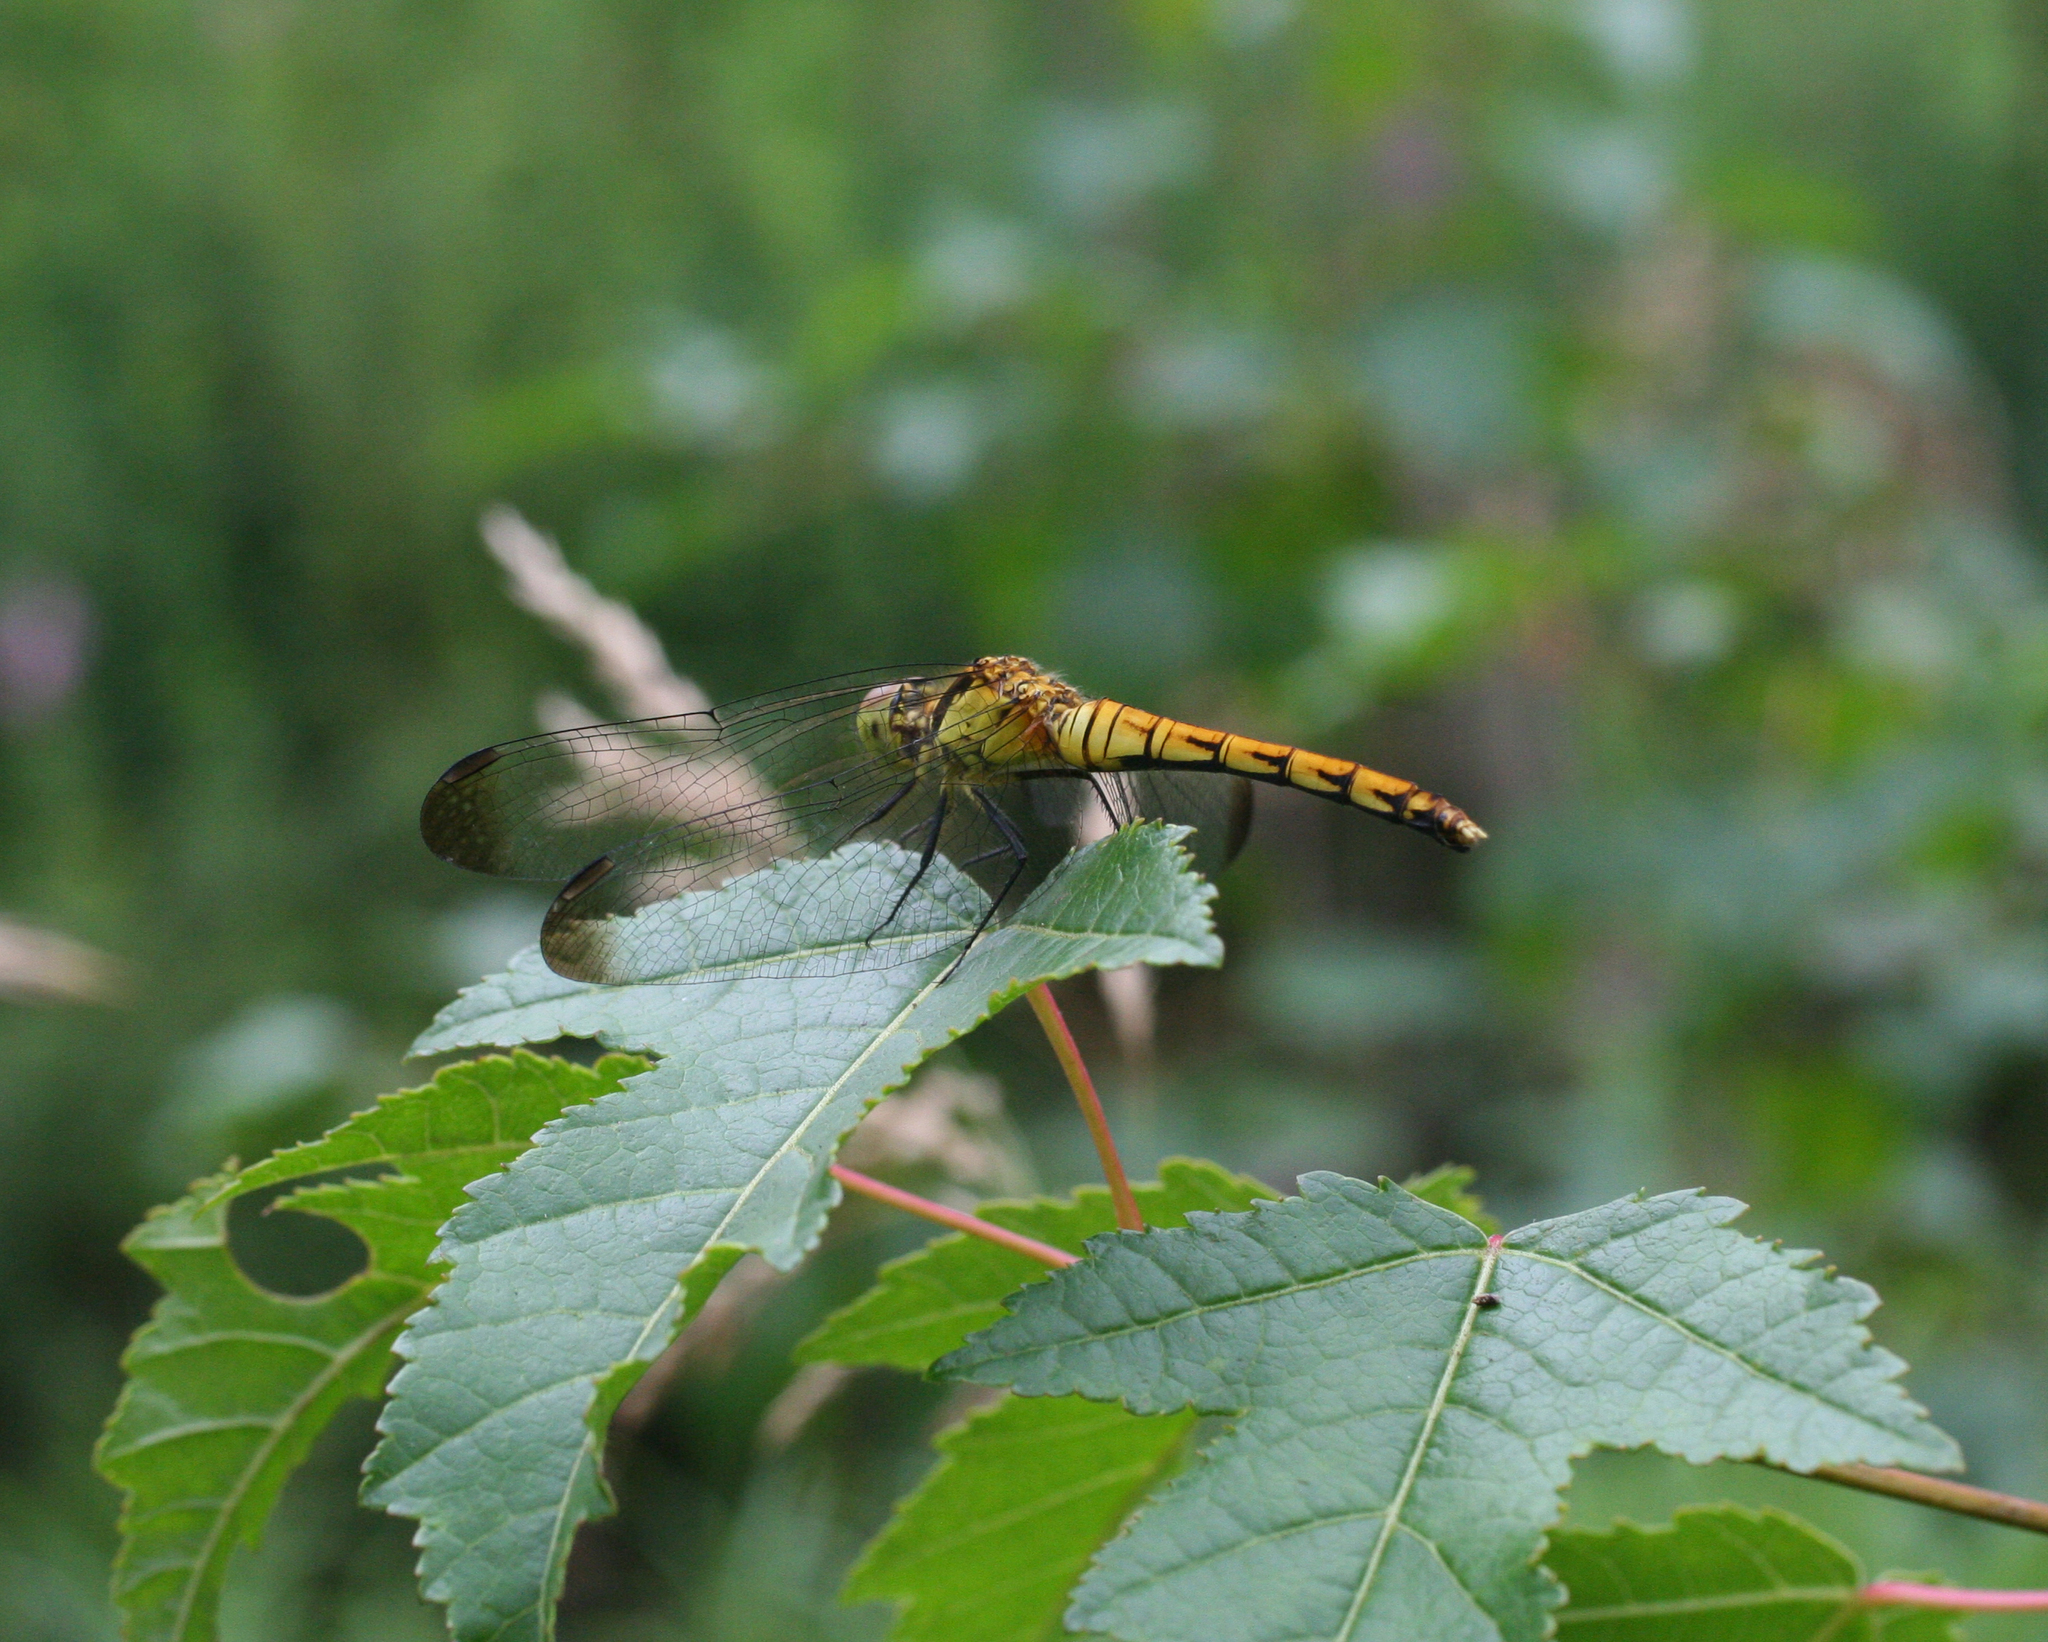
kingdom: Animalia
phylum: Arthropoda
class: Insecta
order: Odonata
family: Libellulidae
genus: Sympetrum
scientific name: Sympetrum eroticum
